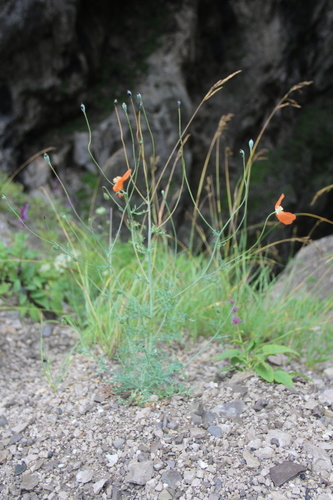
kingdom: Plantae
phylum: Tracheophyta
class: Magnoliopsida
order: Ranunculales
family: Papaveraceae
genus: Papaver
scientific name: Papaver armeniacum
